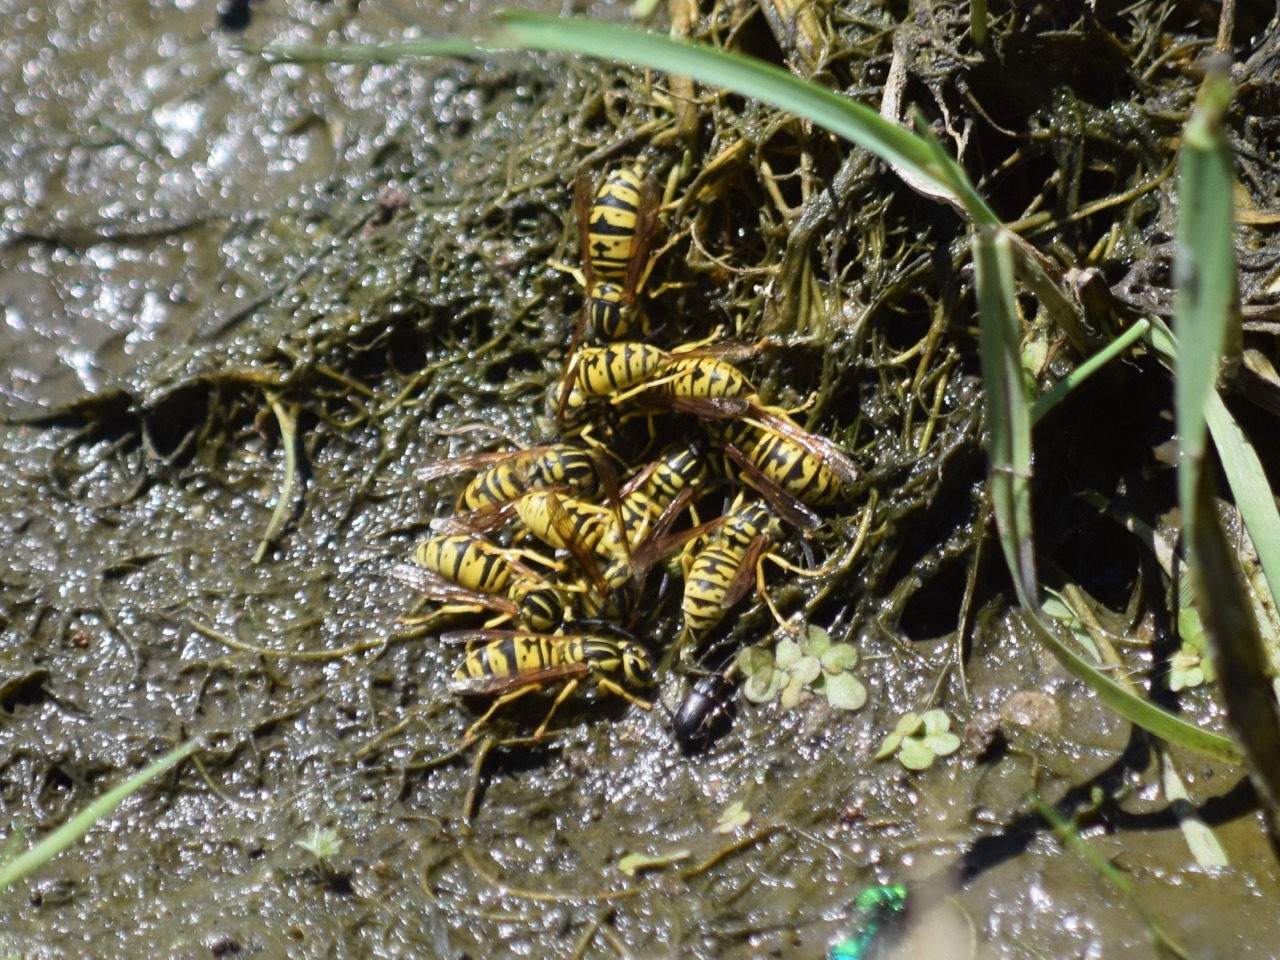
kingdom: Animalia
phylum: Arthropoda
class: Insecta
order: Hymenoptera
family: Vespidae
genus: Vespula
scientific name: Vespula sulphurea
